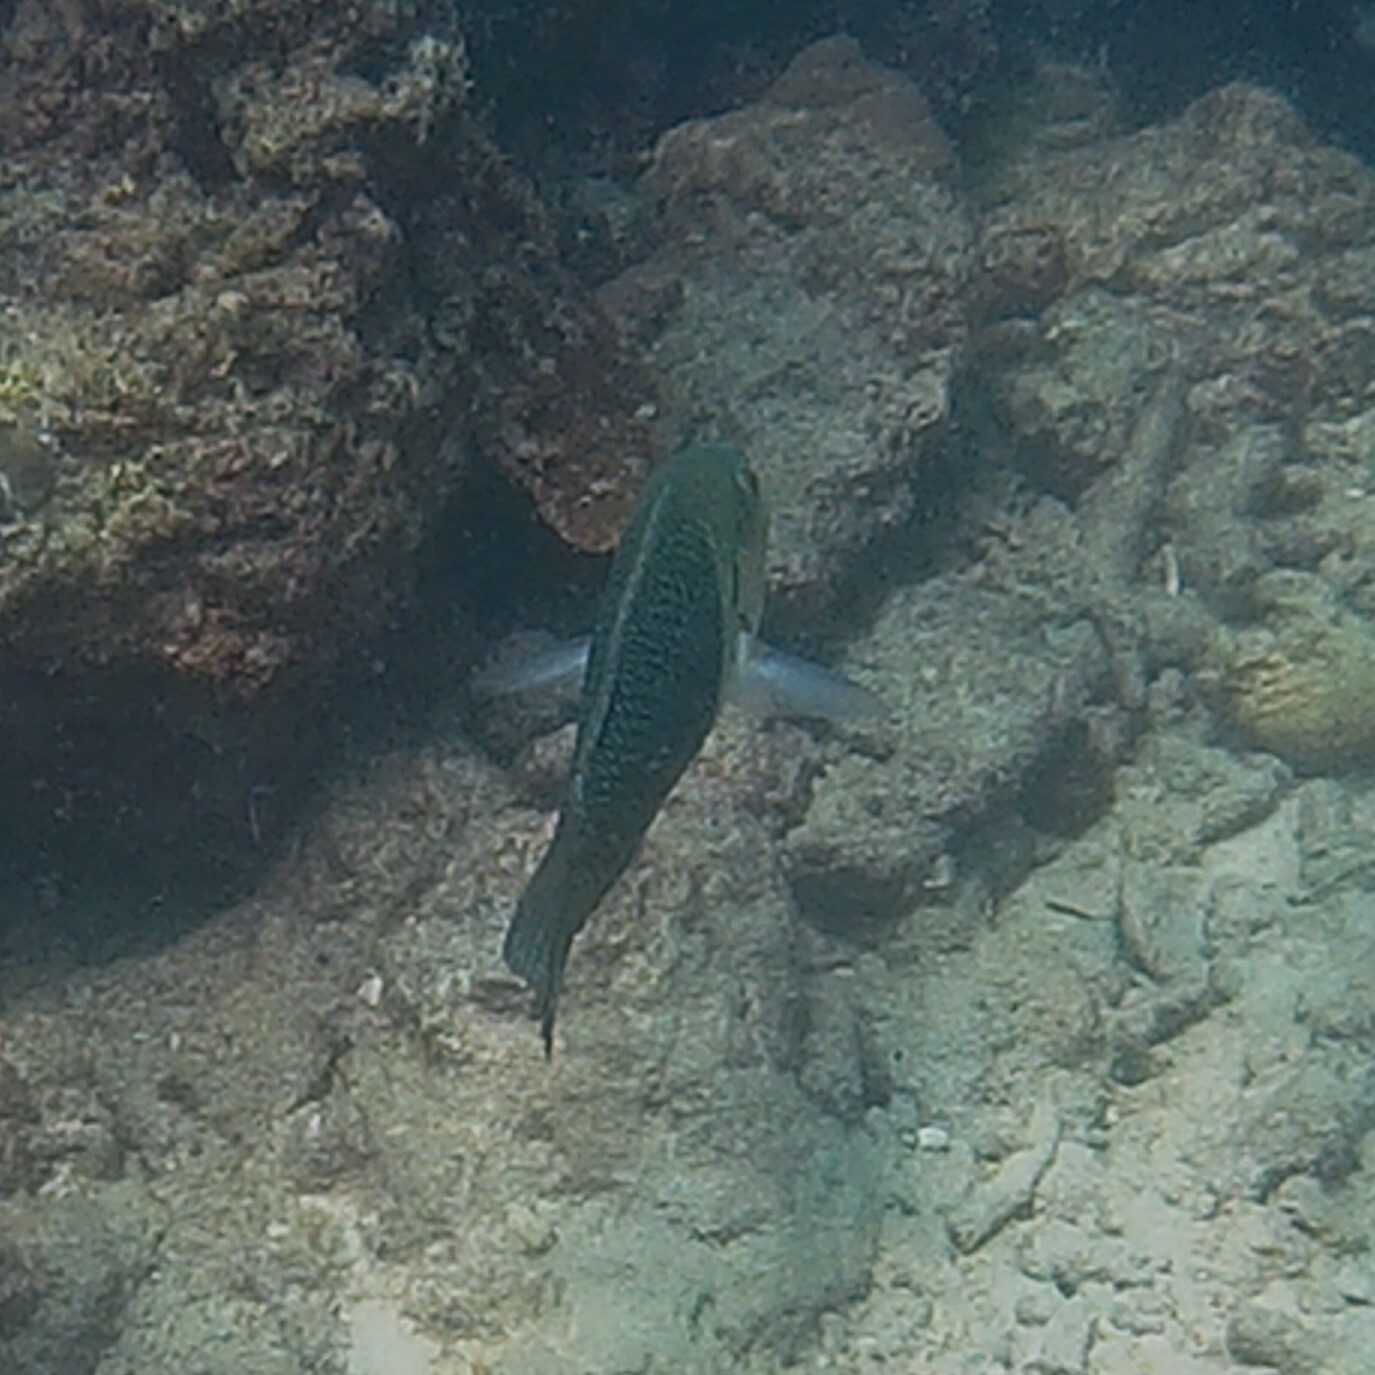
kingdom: Animalia
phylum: Chordata
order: Perciformes
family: Labridae
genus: Hemigymnus
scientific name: Hemigymnus melapterus
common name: Blackeye thicklip
